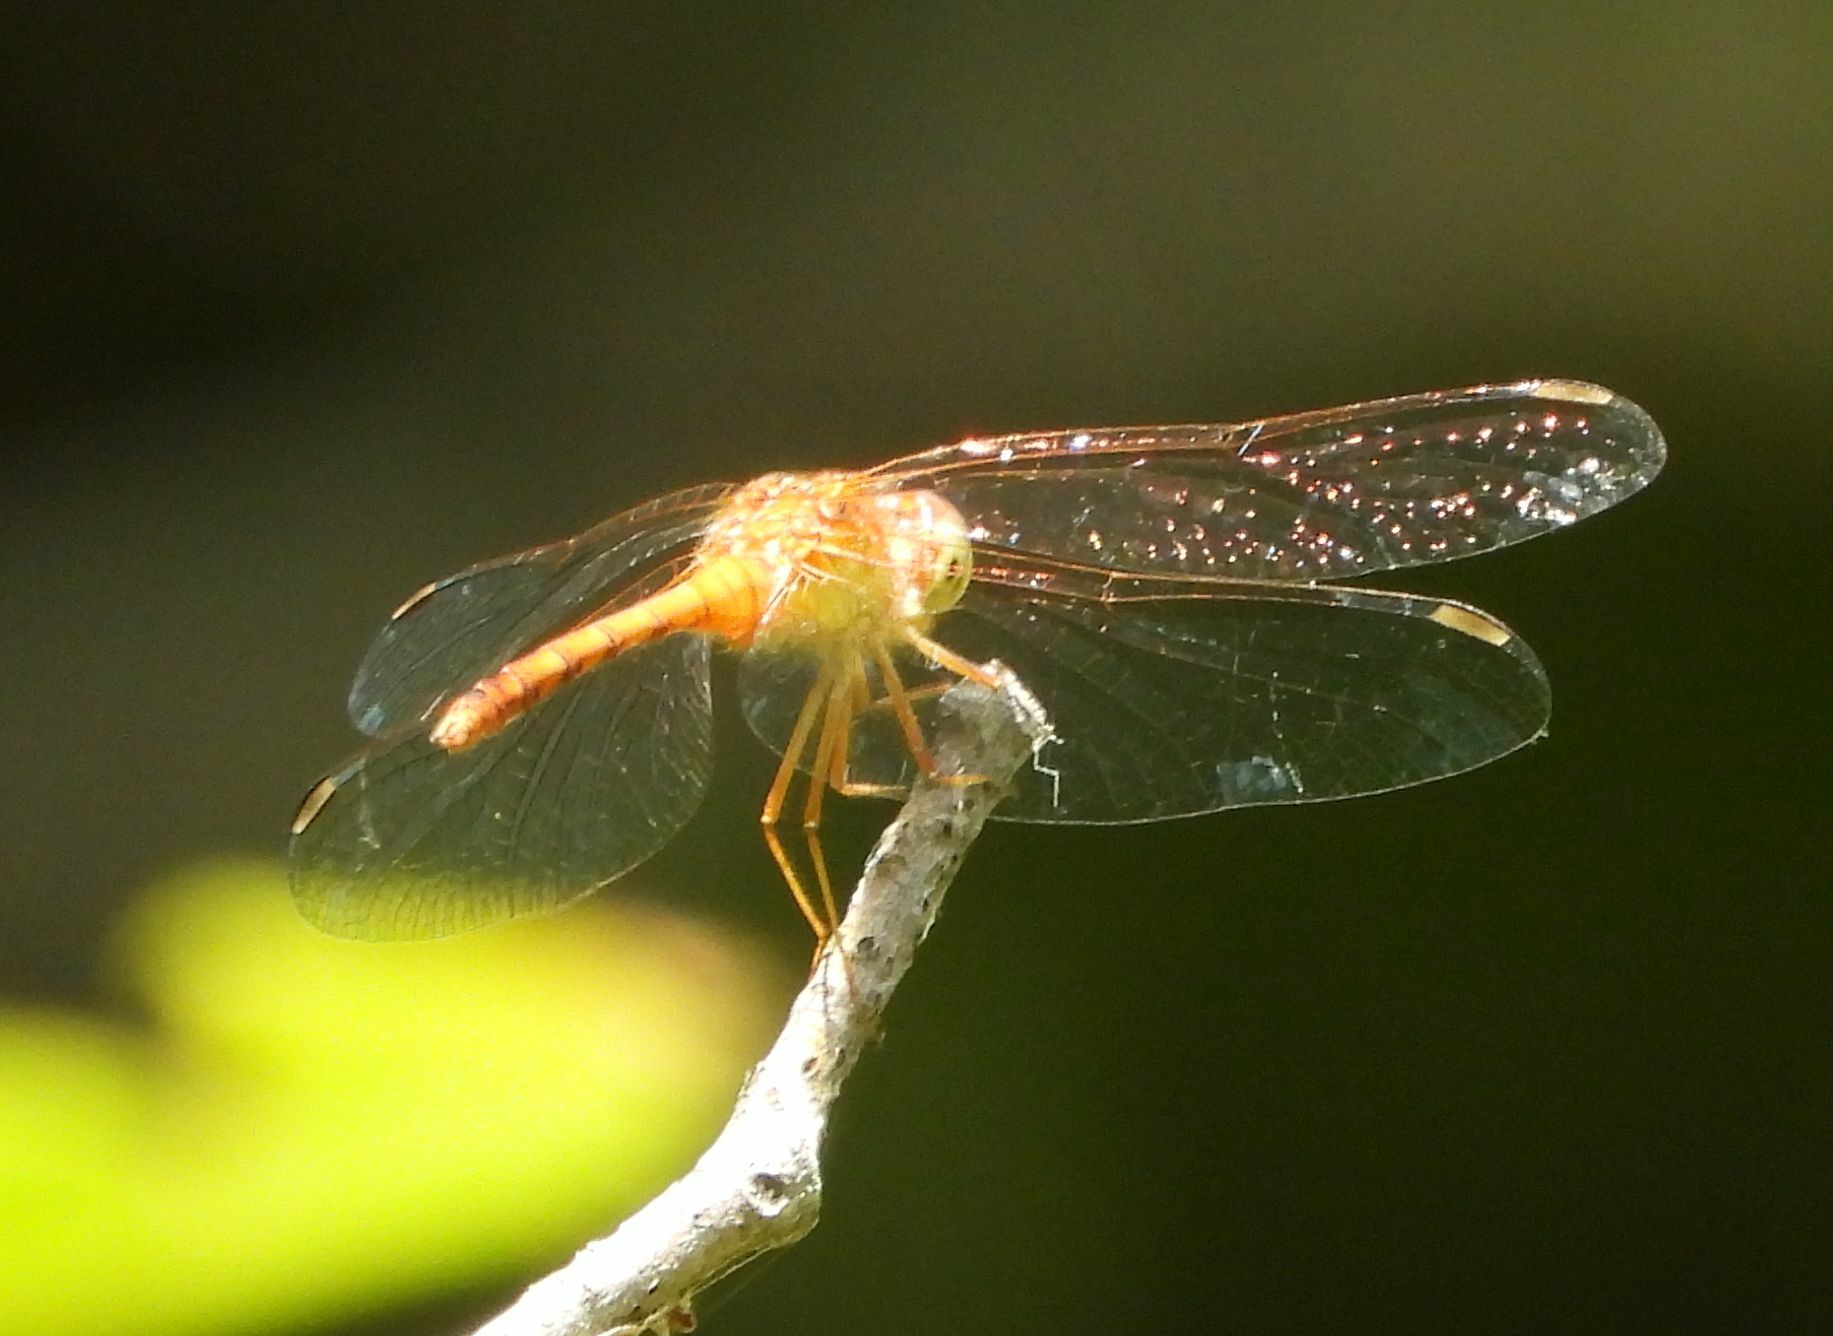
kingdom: Animalia
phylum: Arthropoda
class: Insecta
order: Odonata
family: Libellulidae
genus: Sympetrum
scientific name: Sympetrum vicinum
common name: Autumn meadowhawk
